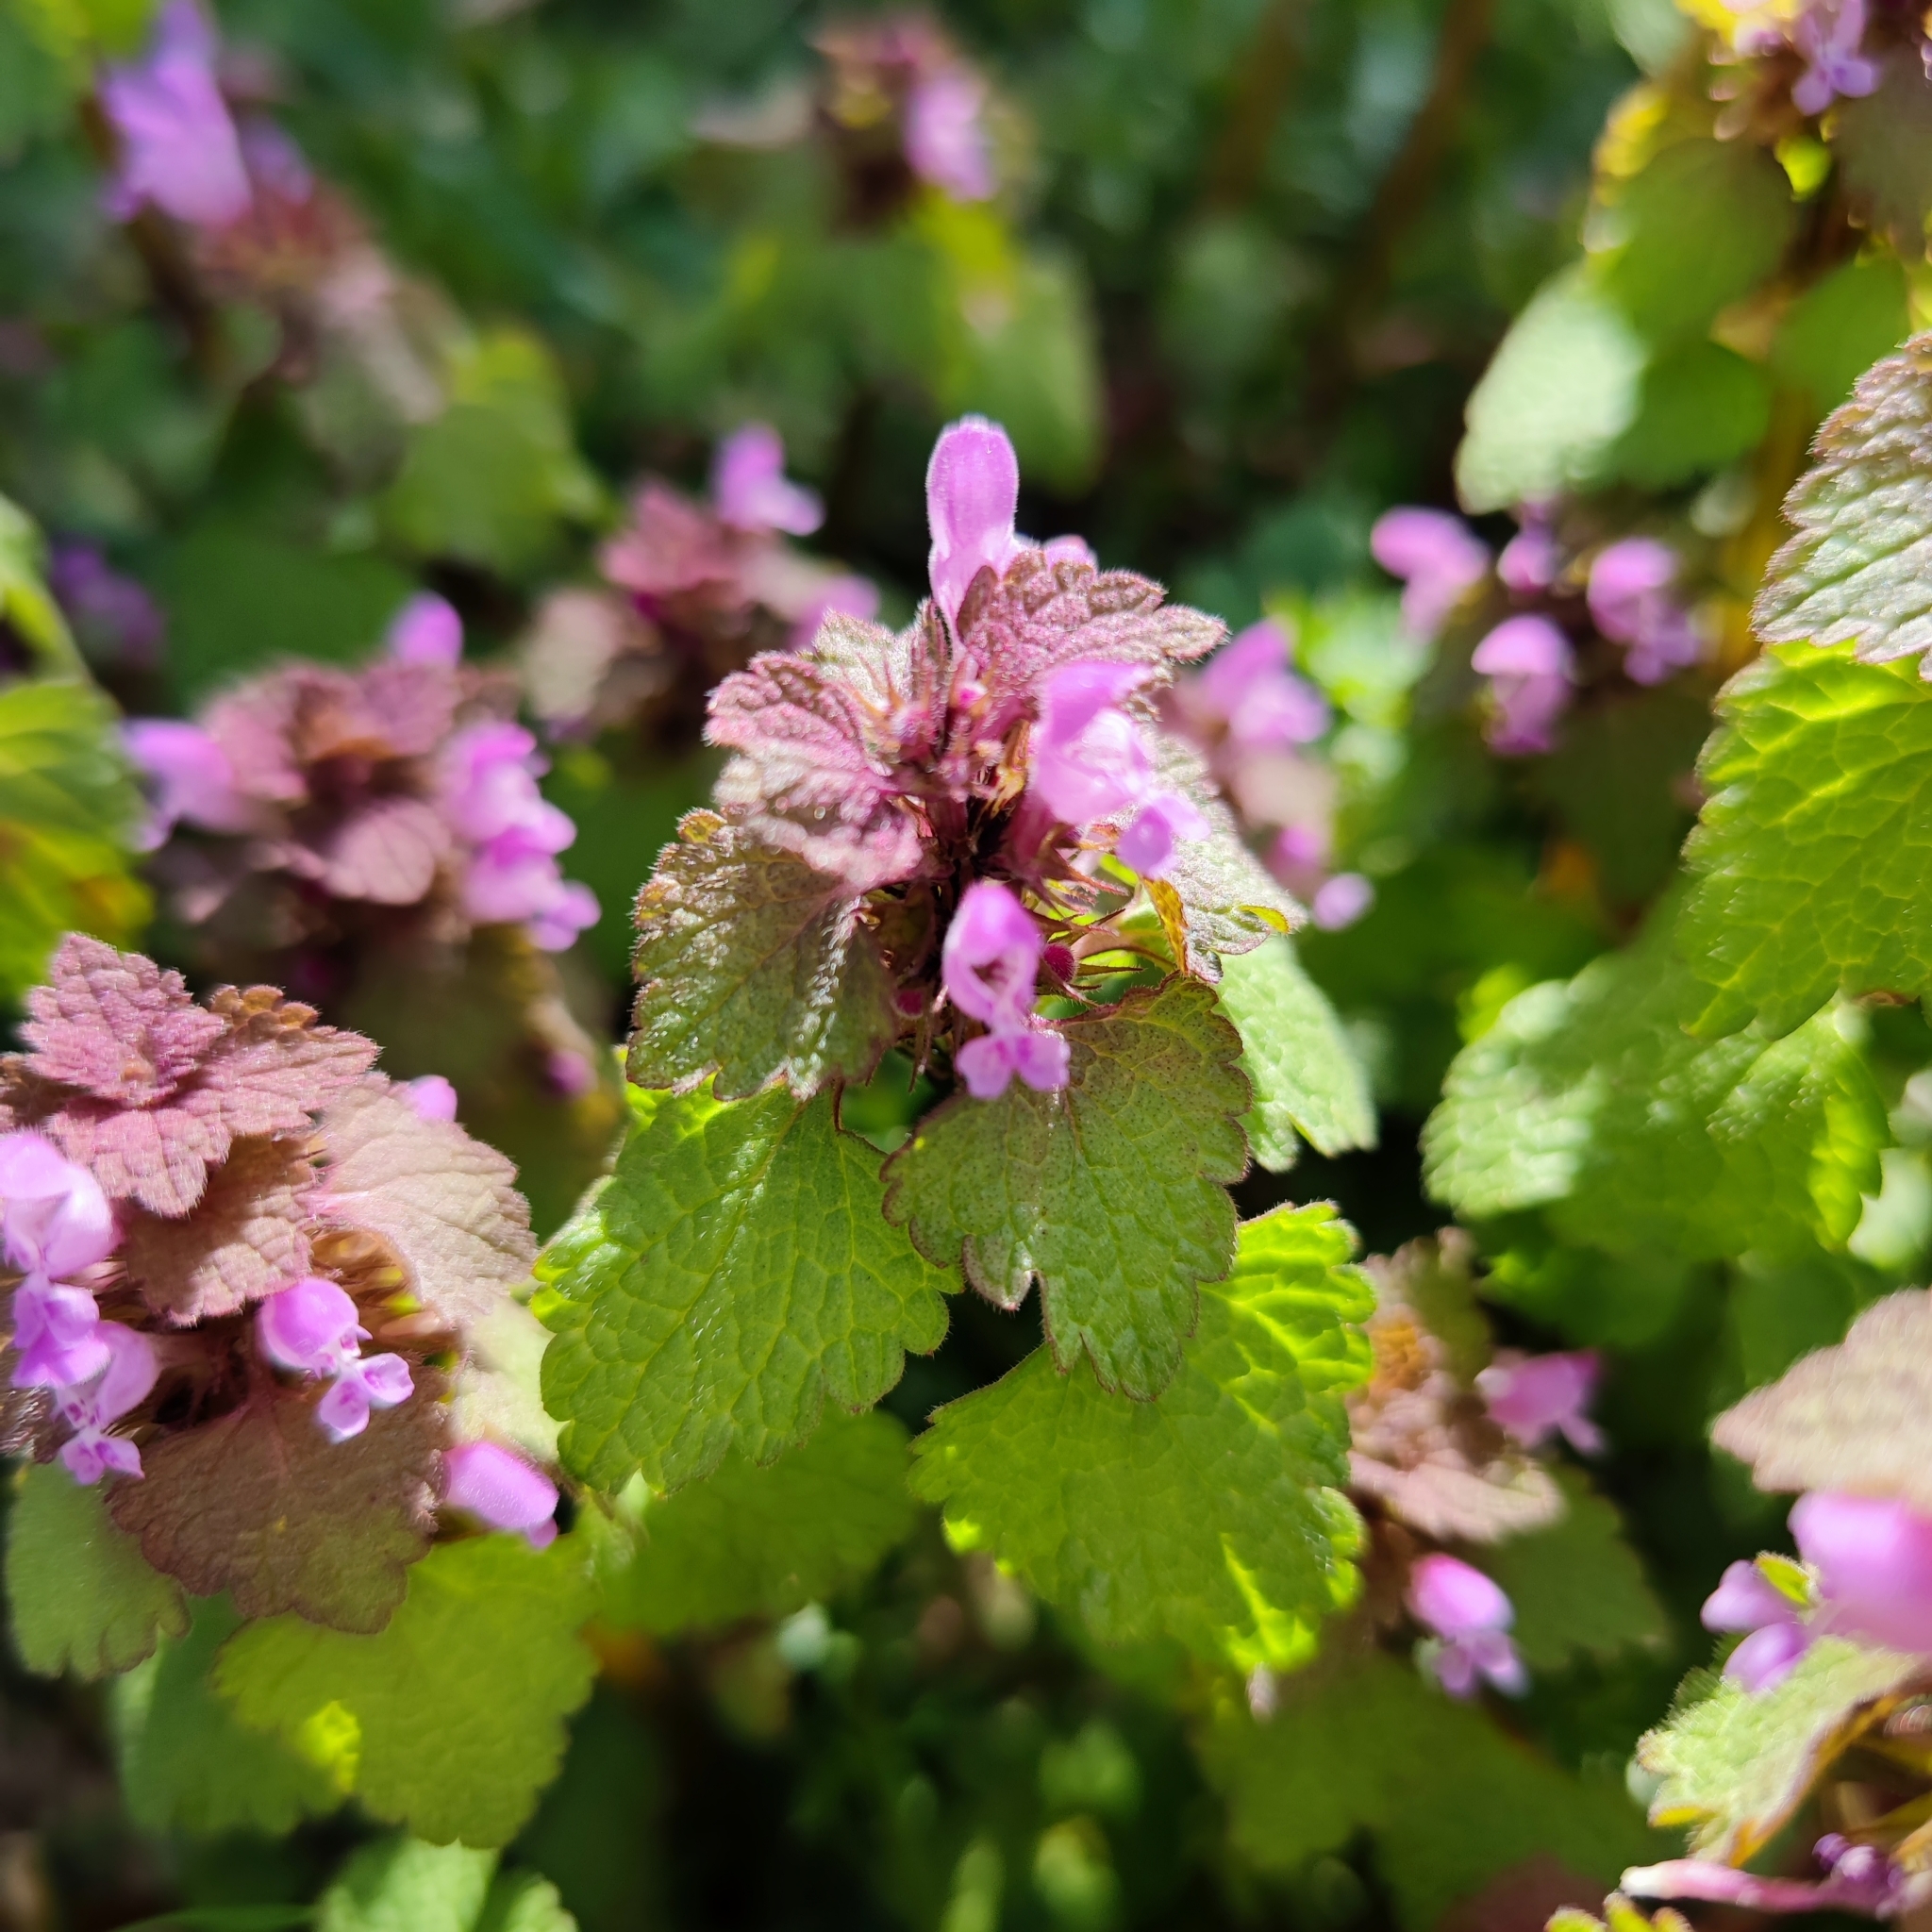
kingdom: Plantae
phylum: Tracheophyta
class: Magnoliopsida
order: Lamiales
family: Lamiaceae
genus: Lamium
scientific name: Lamium purpureum
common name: Red dead-nettle
